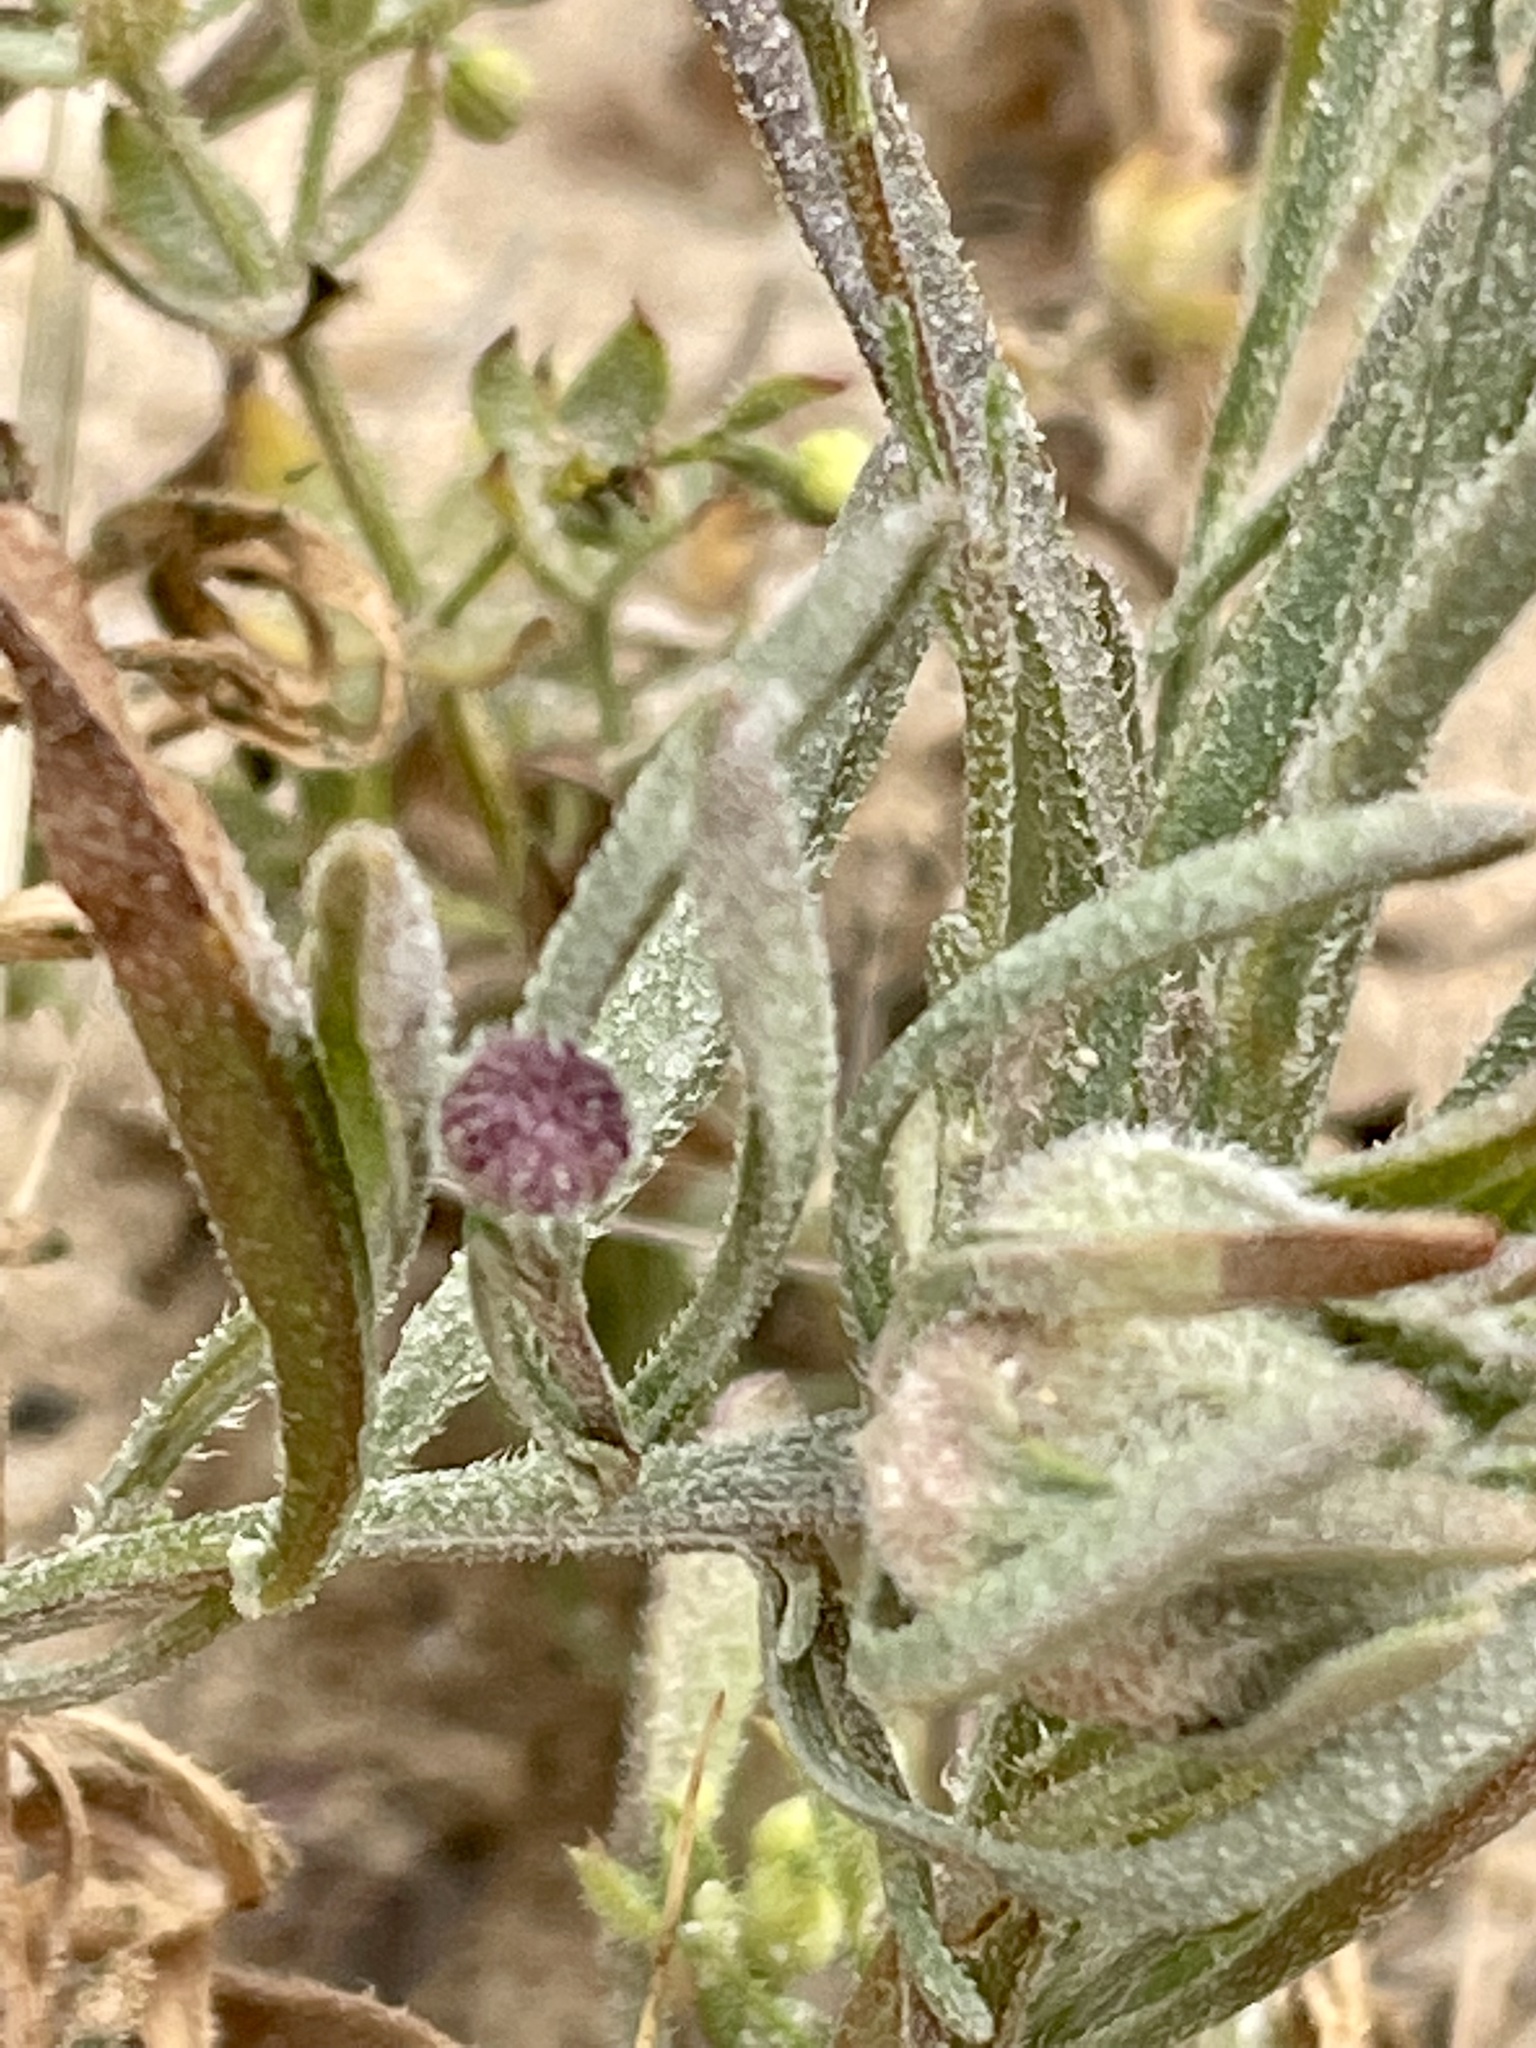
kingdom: Plantae
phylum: Tracheophyta
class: Magnoliopsida
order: Asterales
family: Asteraceae
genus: Erigeron
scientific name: Erigeron foliosus
